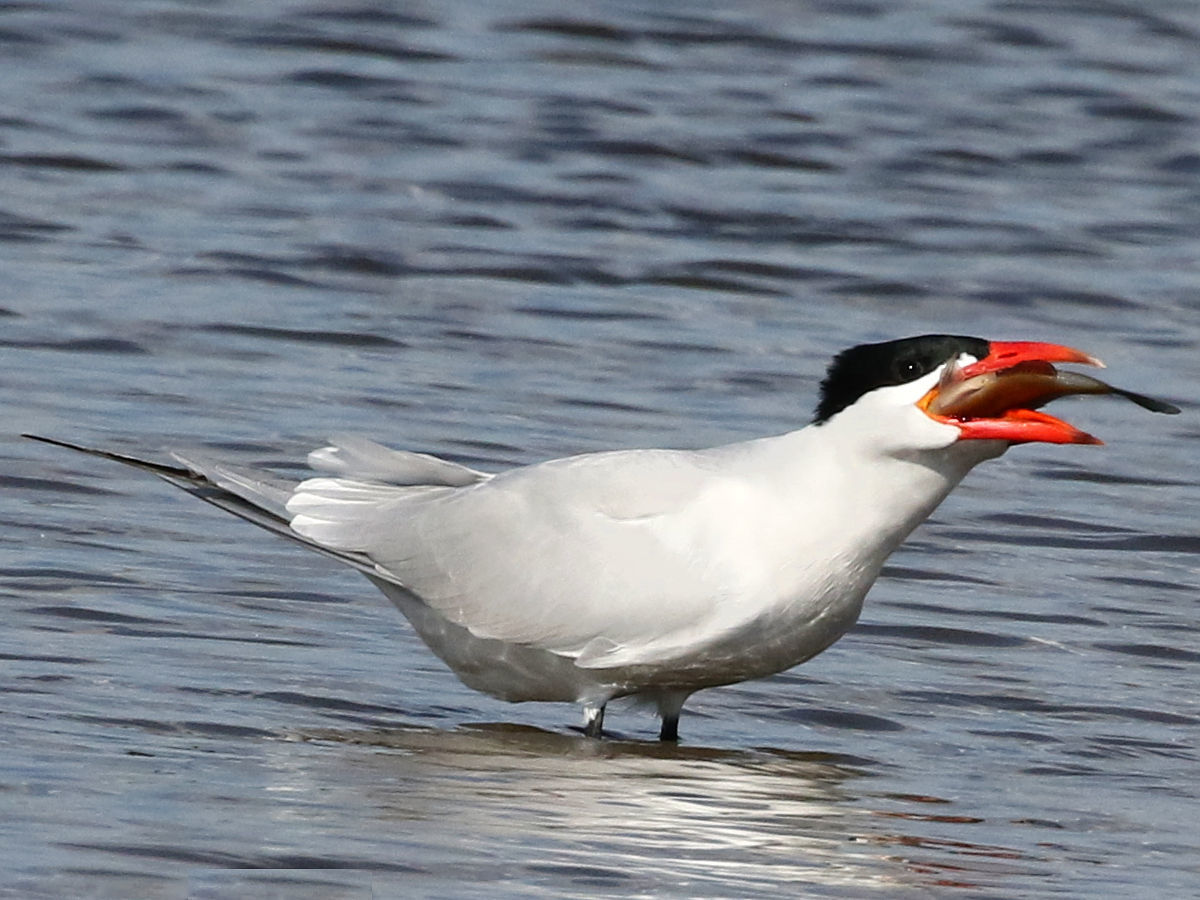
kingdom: Animalia
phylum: Chordata
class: Aves
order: Charadriiformes
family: Laridae
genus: Hydroprogne
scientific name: Hydroprogne caspia
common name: Caspian tern
